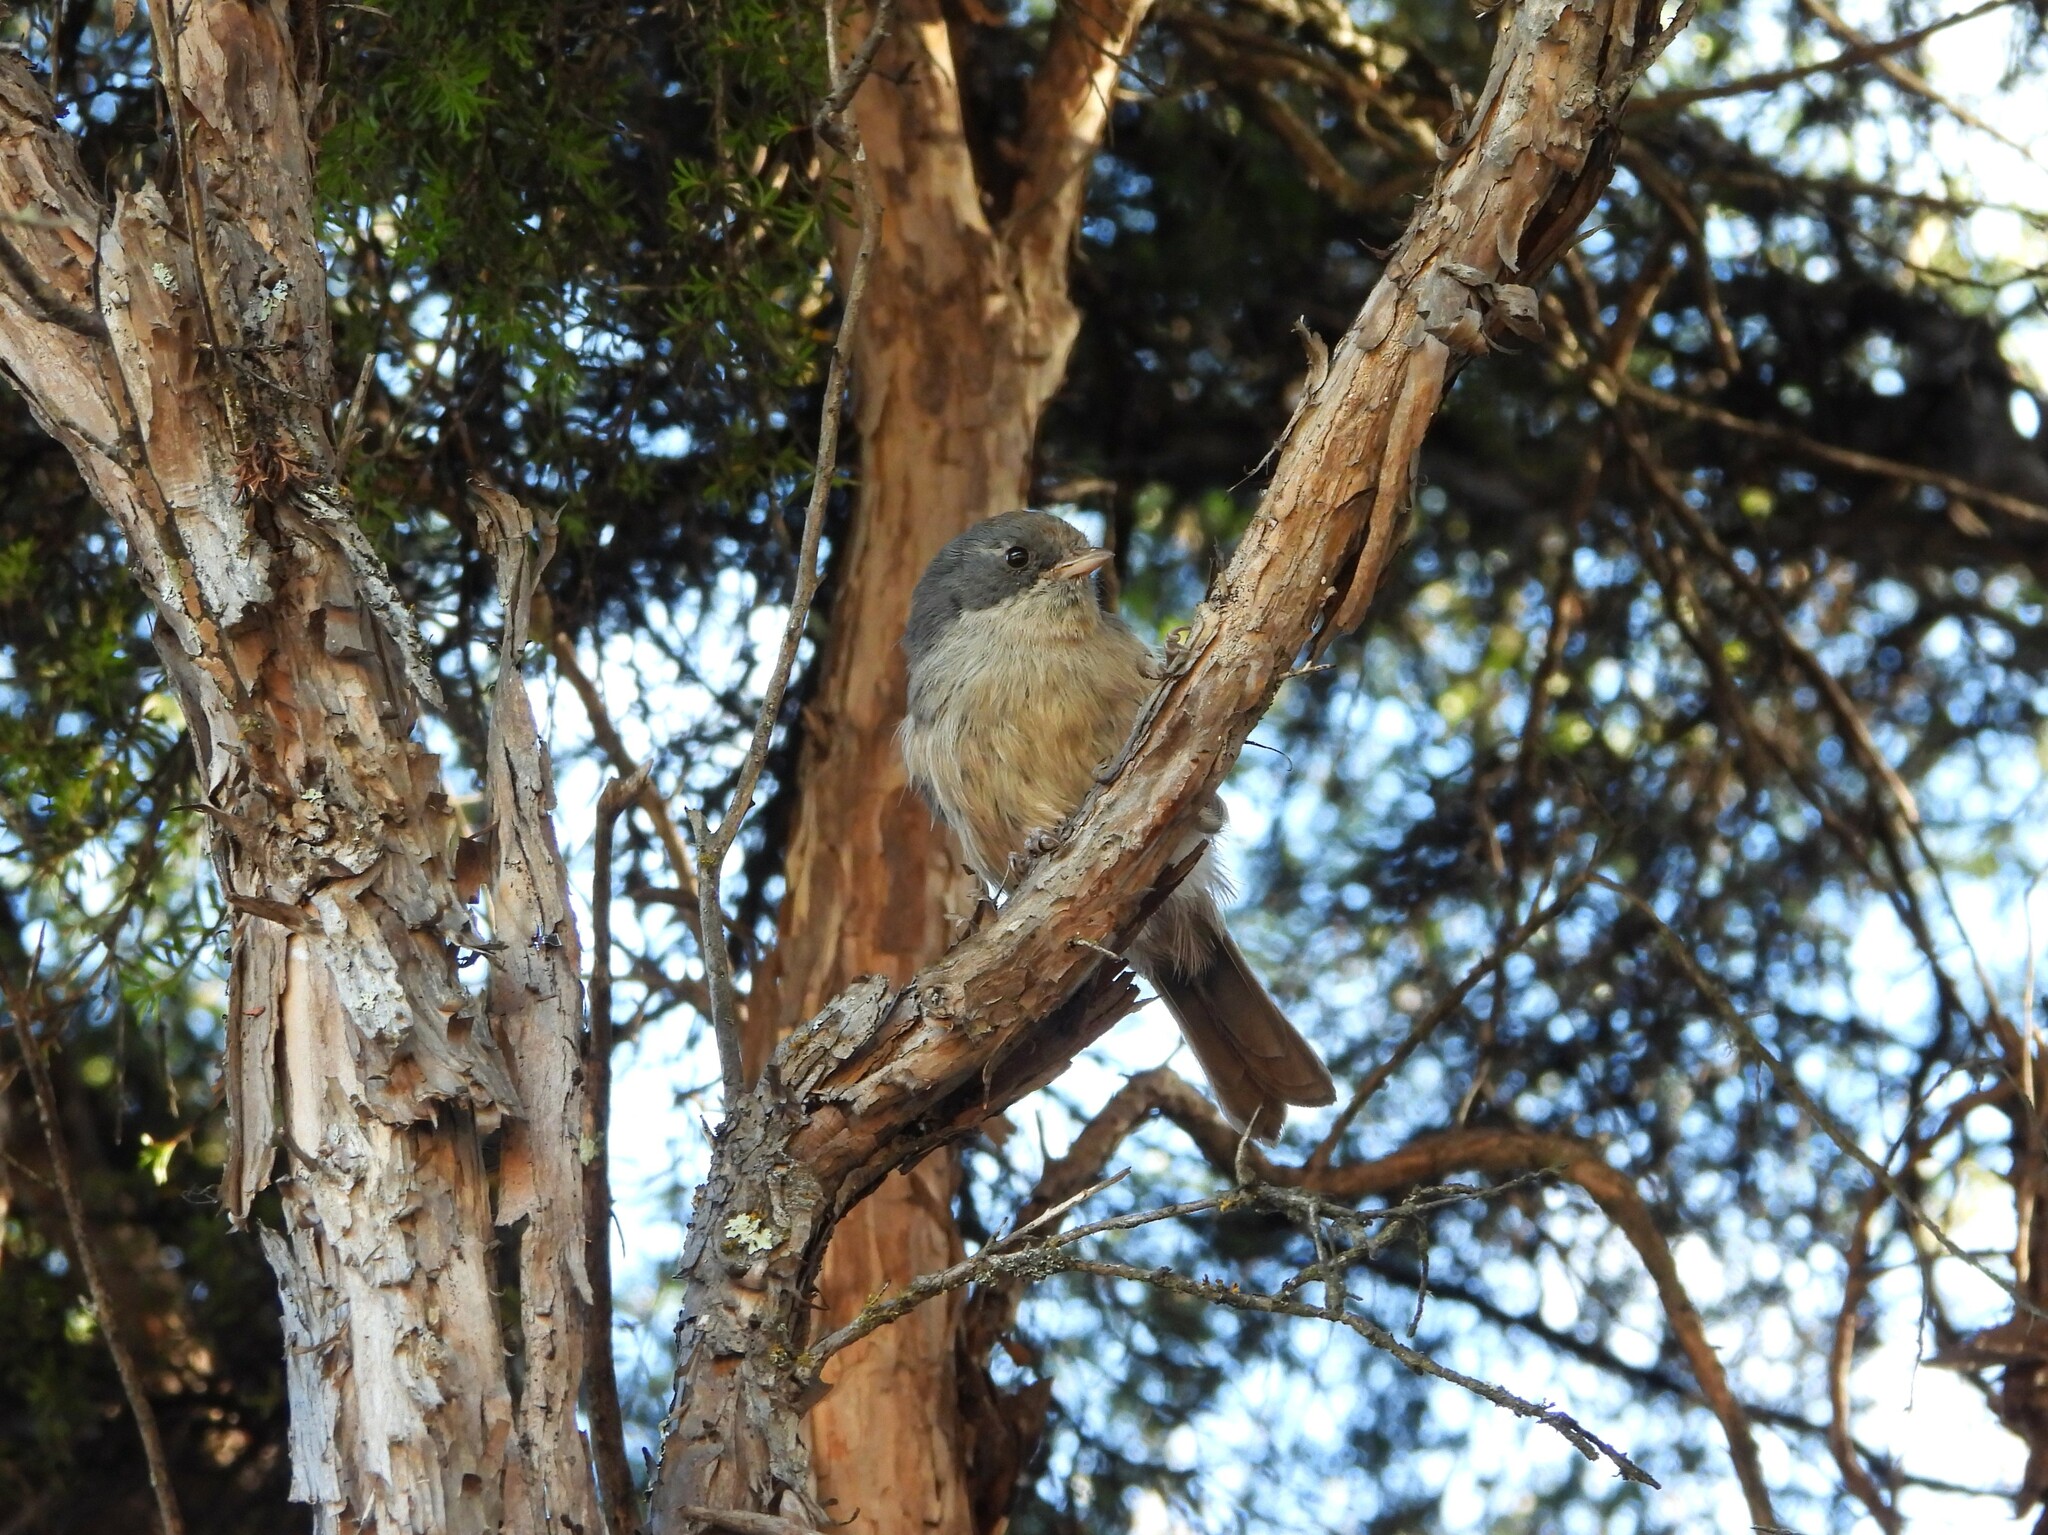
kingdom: Animalia
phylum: Chordata
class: Aves
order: Passeriformes
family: Acanthizidae
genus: Finschia
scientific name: Finschia novaeseelandiae
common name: Pipipi
